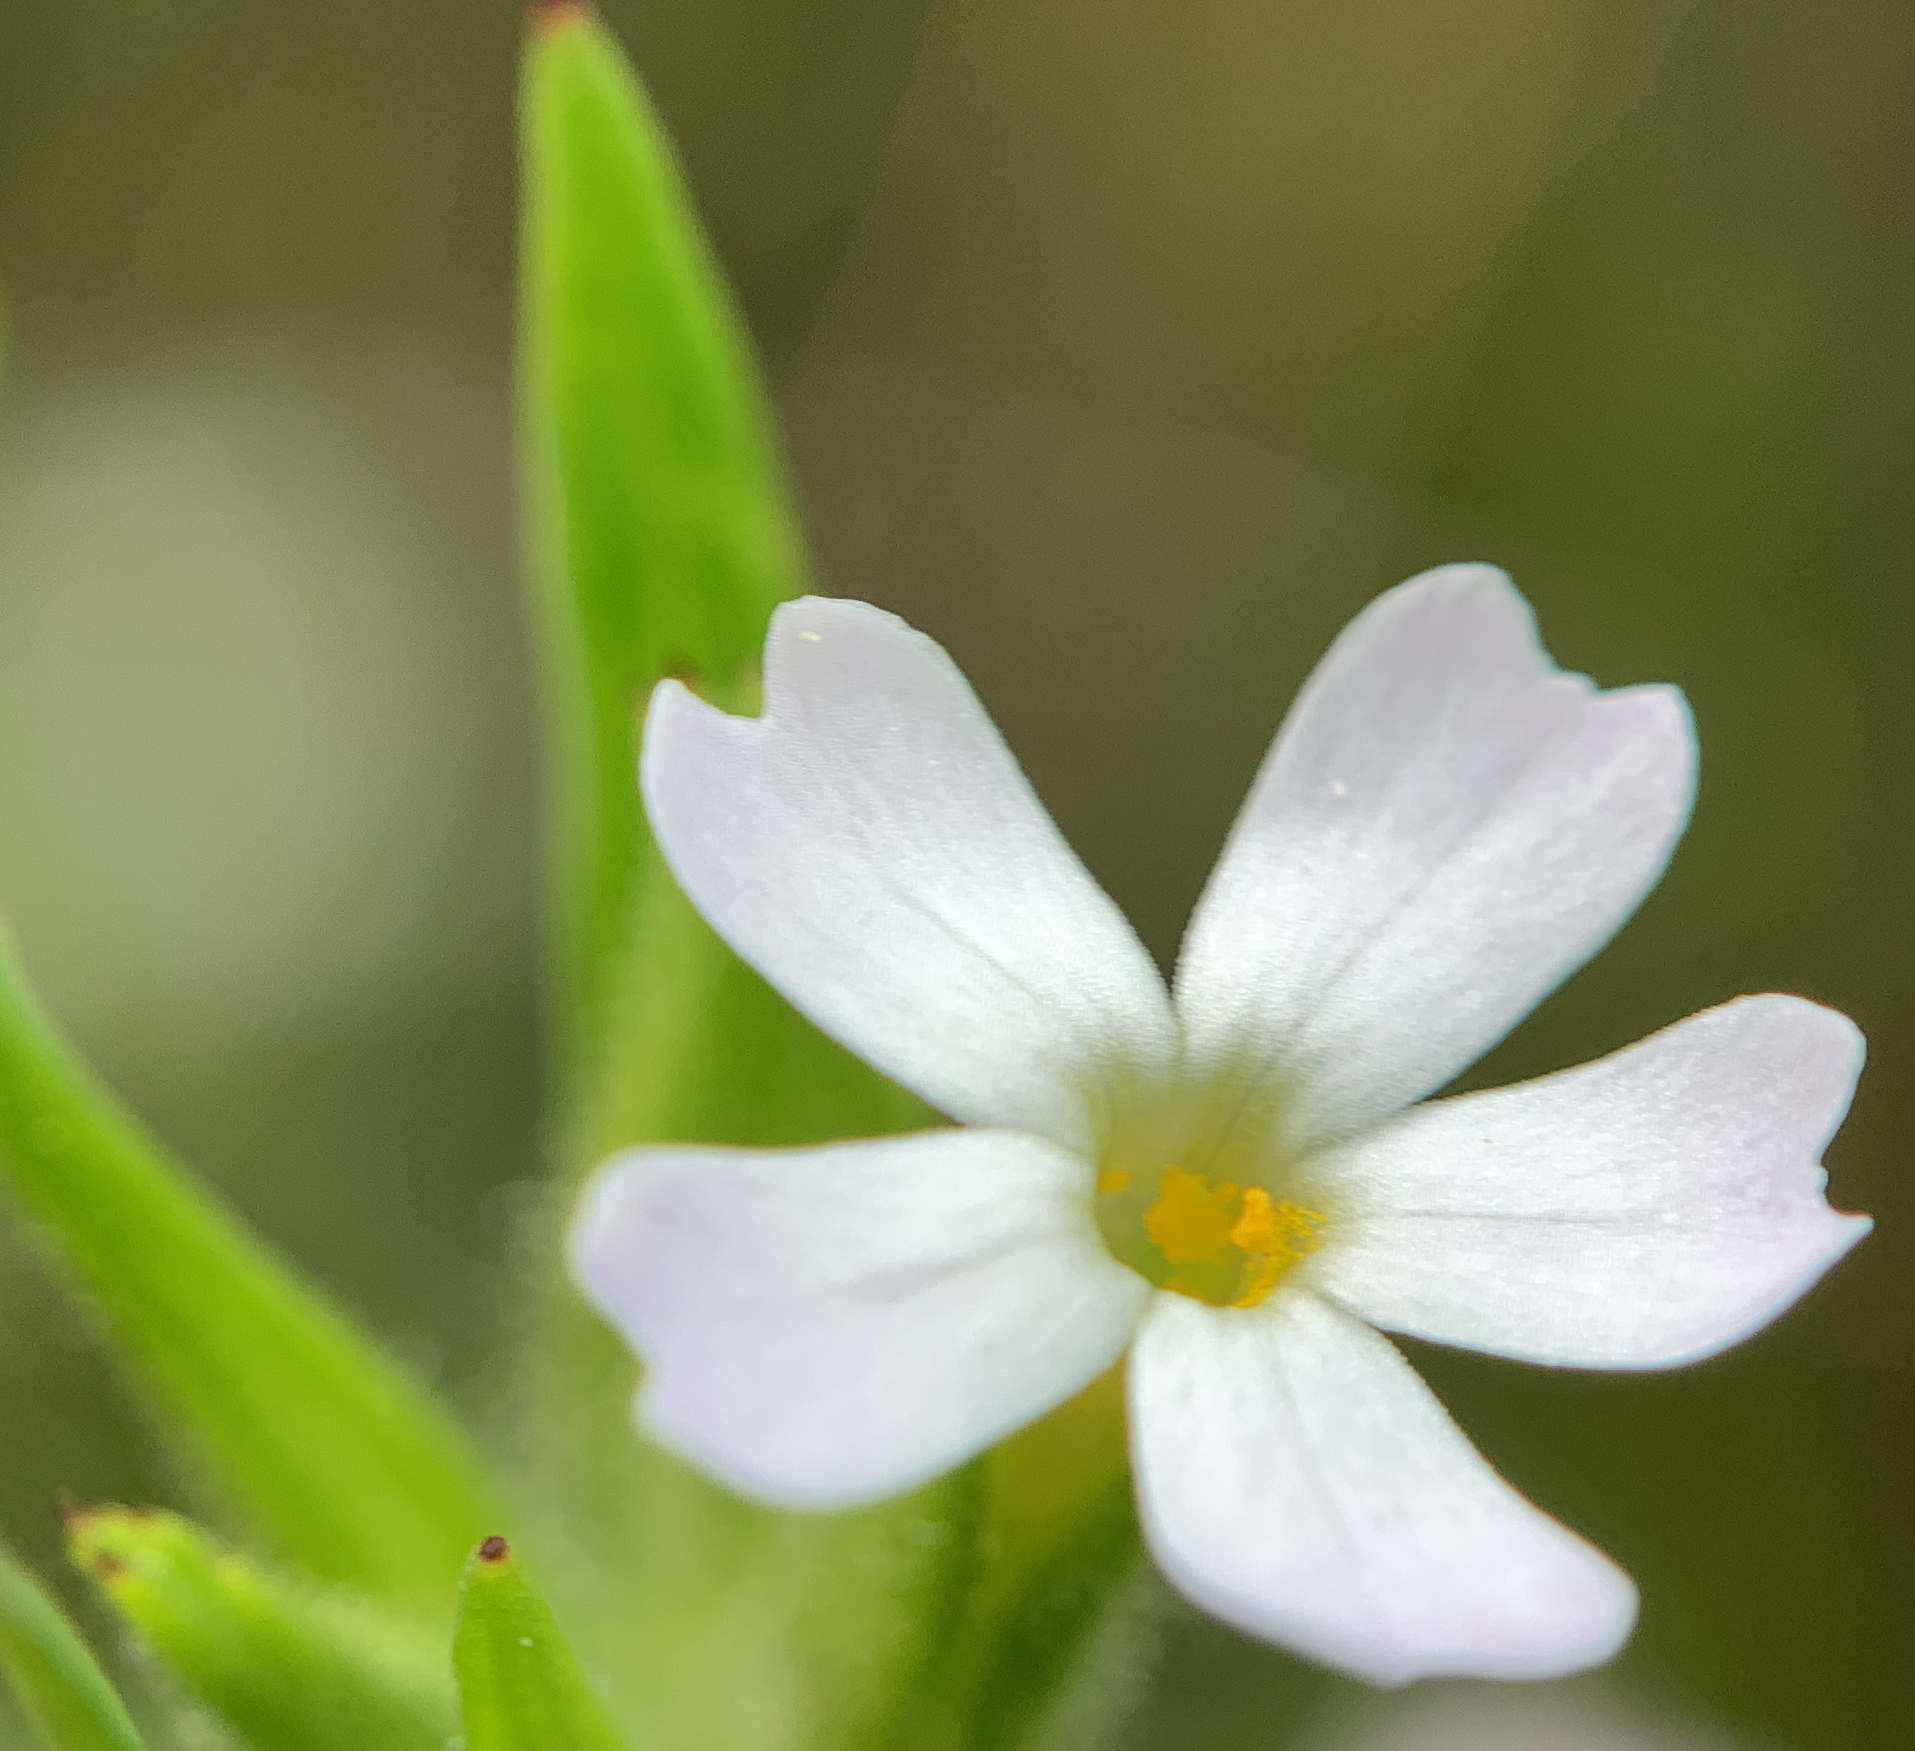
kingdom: Plantae
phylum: Tracheophyta
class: Magnoliopsida
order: Ericales
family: Polemoniaceae
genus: Phlox
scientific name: Phlox gracilis
